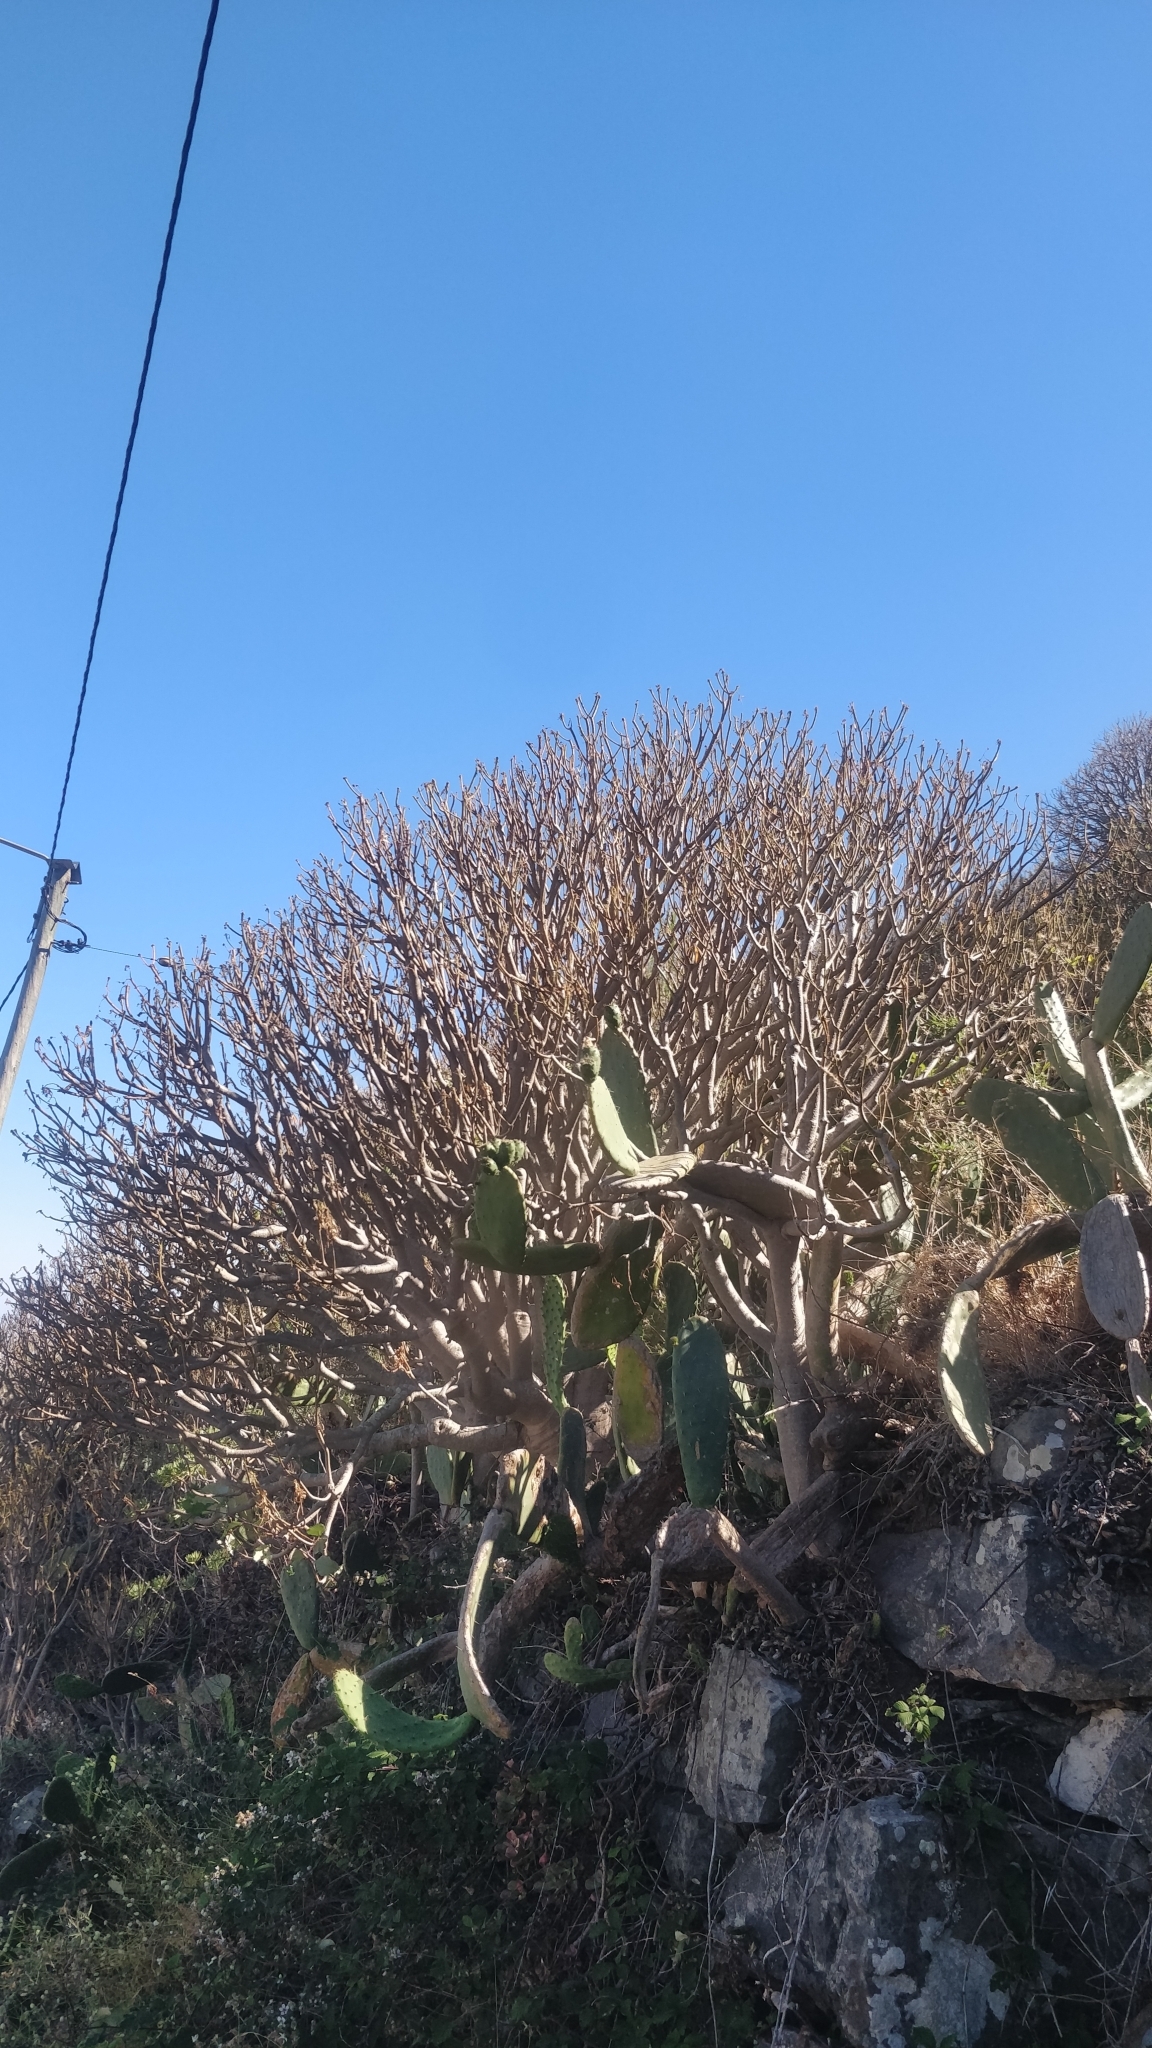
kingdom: Plantae
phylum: Tracheophyta
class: Magnoliopsida
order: Malpighiales
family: Euphorbiaceae
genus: Euphorbia
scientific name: Euphorbia piscatoria
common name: Fish-stunning spurge
